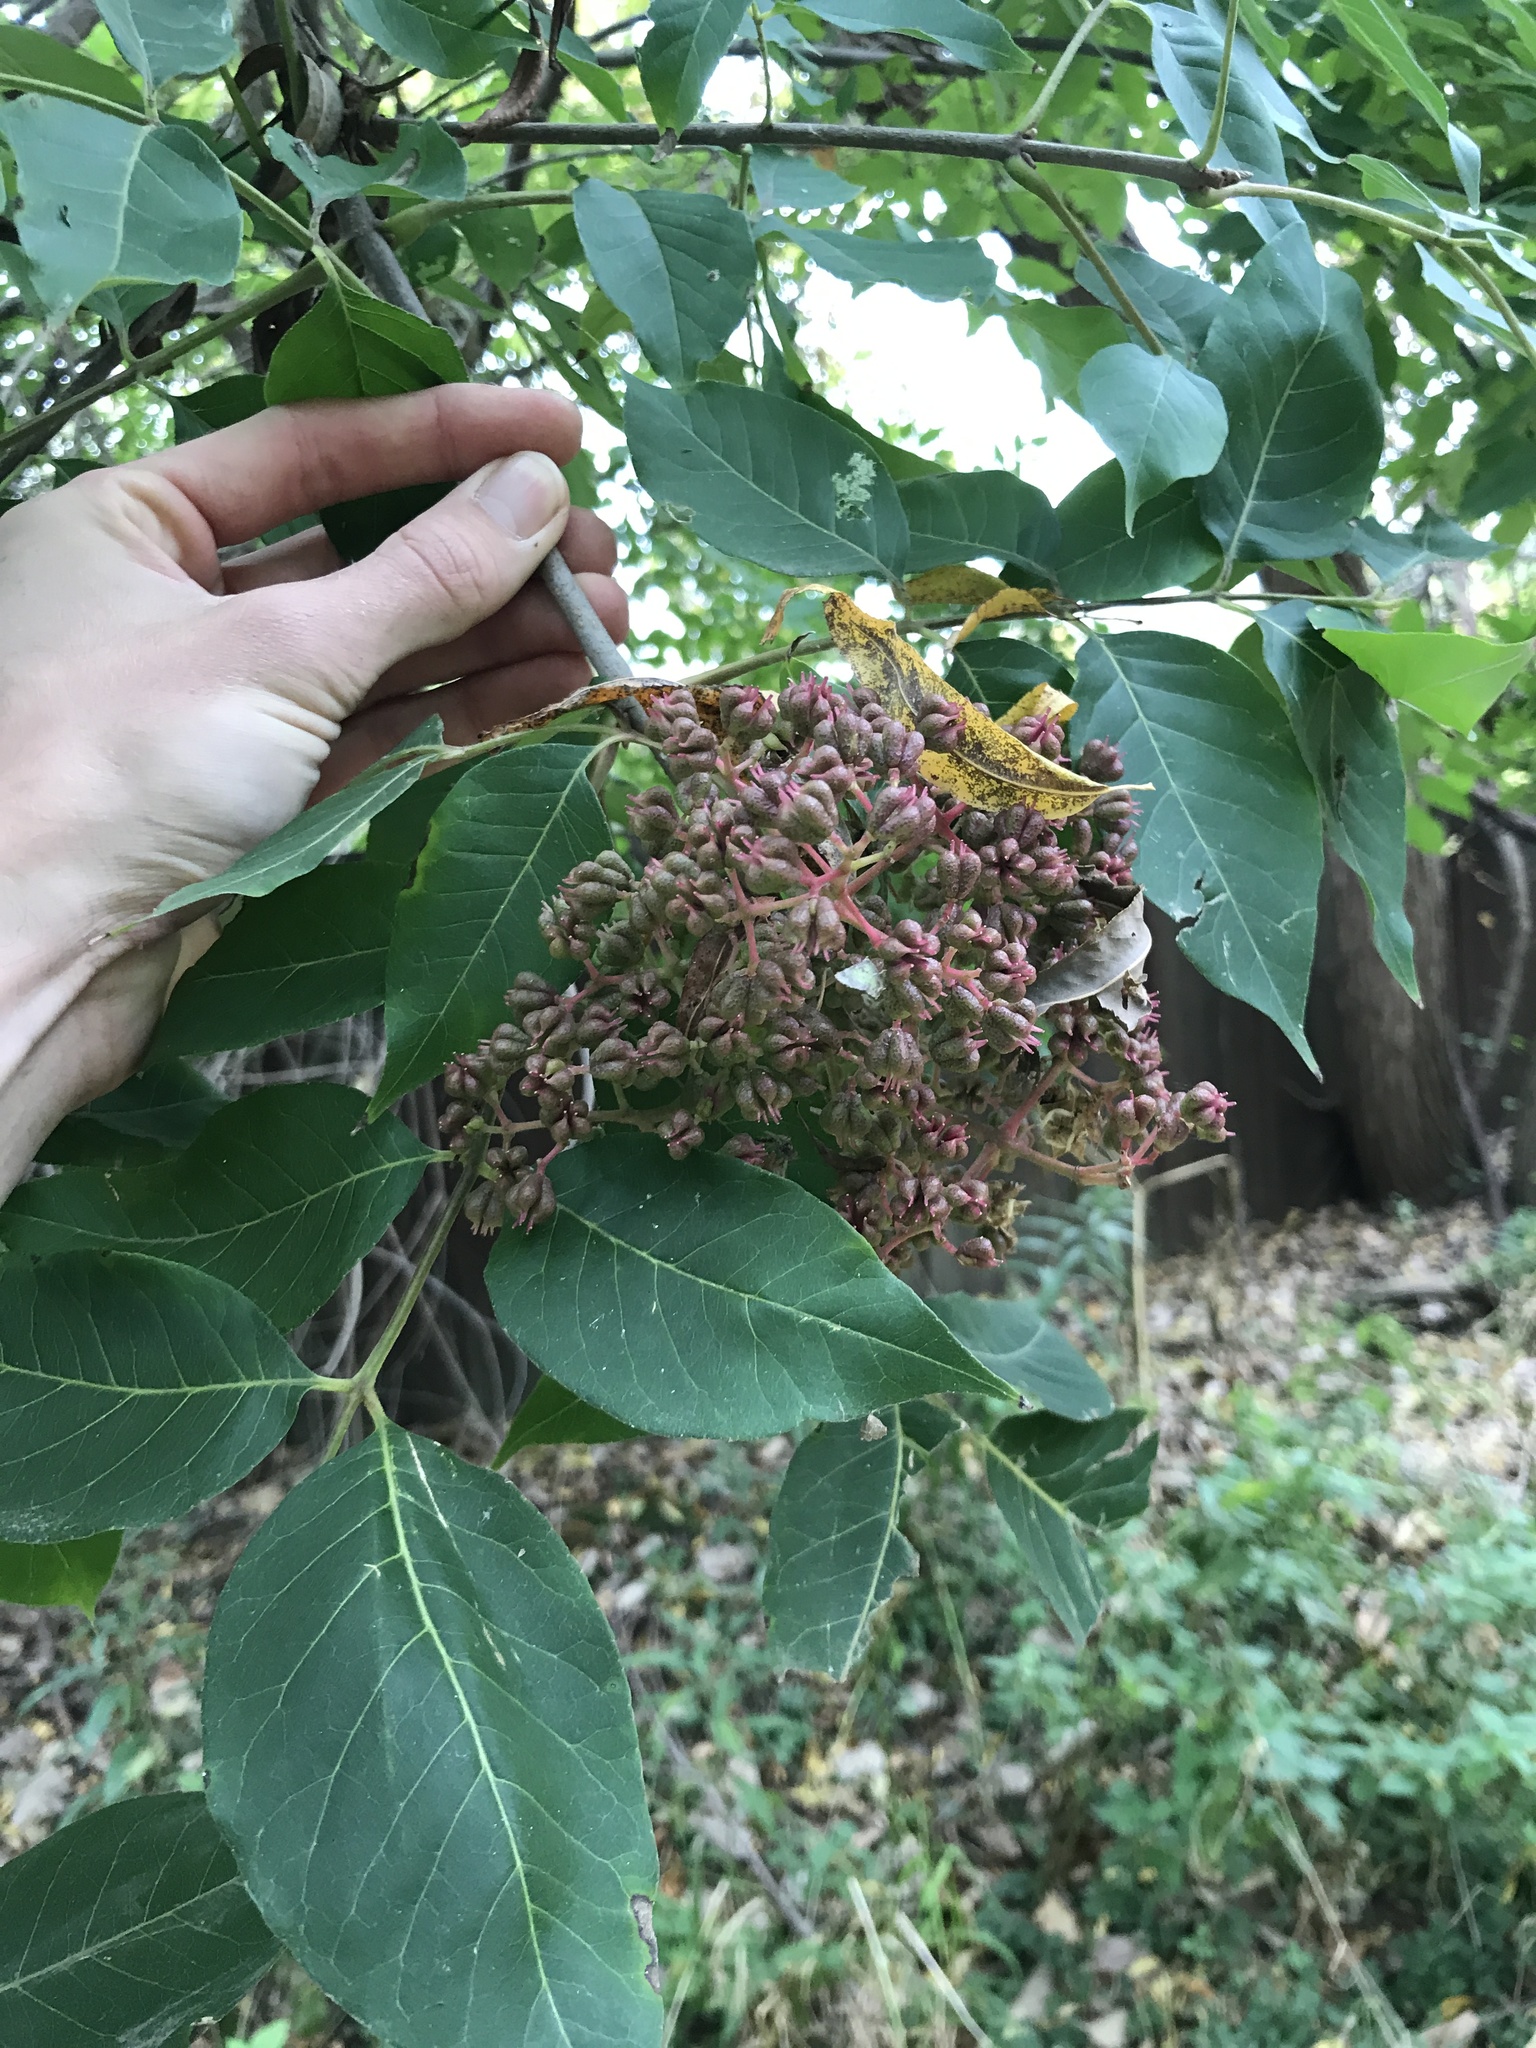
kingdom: Plantae
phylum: Tracheophyta
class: Magnoliopsida
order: Sapindales
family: Rutaceae
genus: Tetradium
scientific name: Tetradium daniellii
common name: Bee-bee tree
